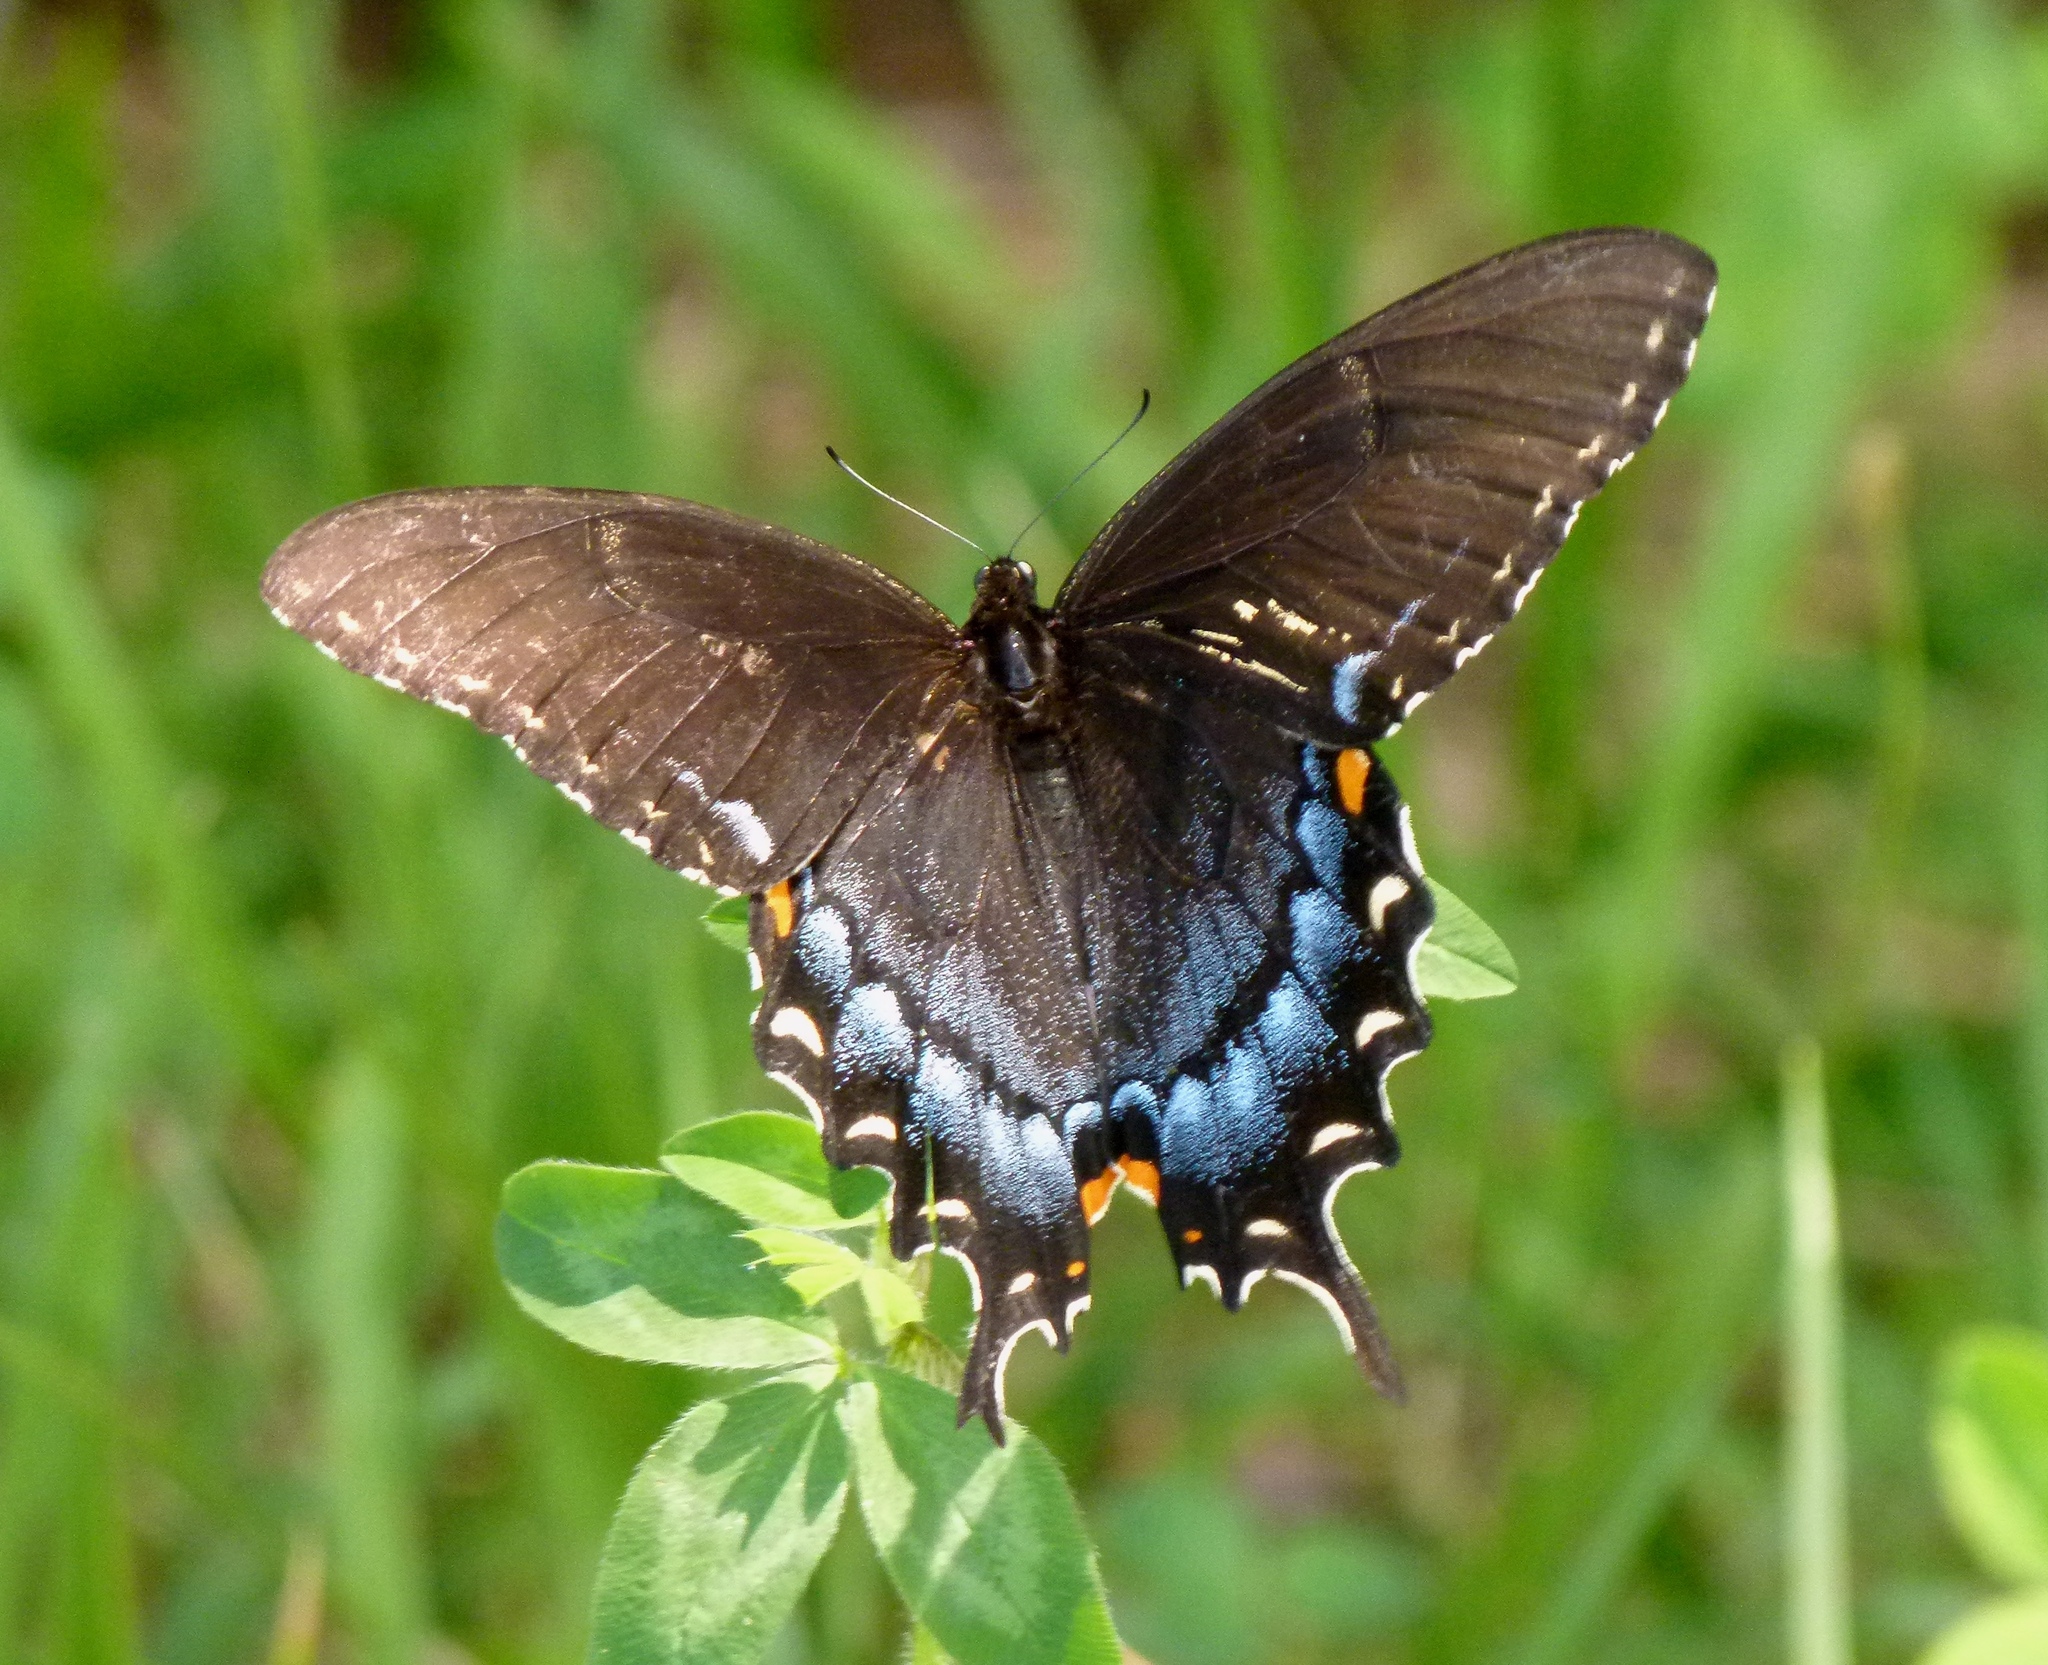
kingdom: Animalia
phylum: Arthropoda
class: Insecta
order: Lepidoptera
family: Papilionidae
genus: Papilio
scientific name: Papilio glaucus
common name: Tiger swallowtail
